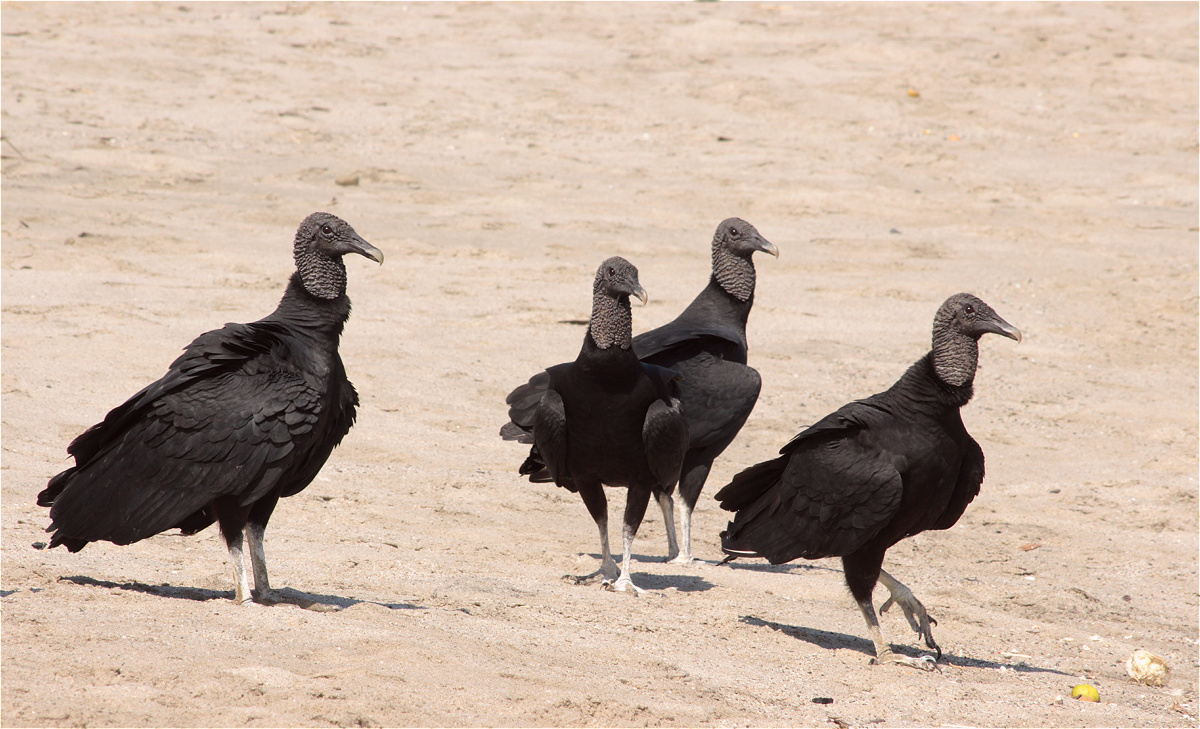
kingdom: Animalia
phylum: Chordata
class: Aves
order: Accipitriformes
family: Cathartidae
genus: Coragyps
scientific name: Coragyps atratus
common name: Black vulture
